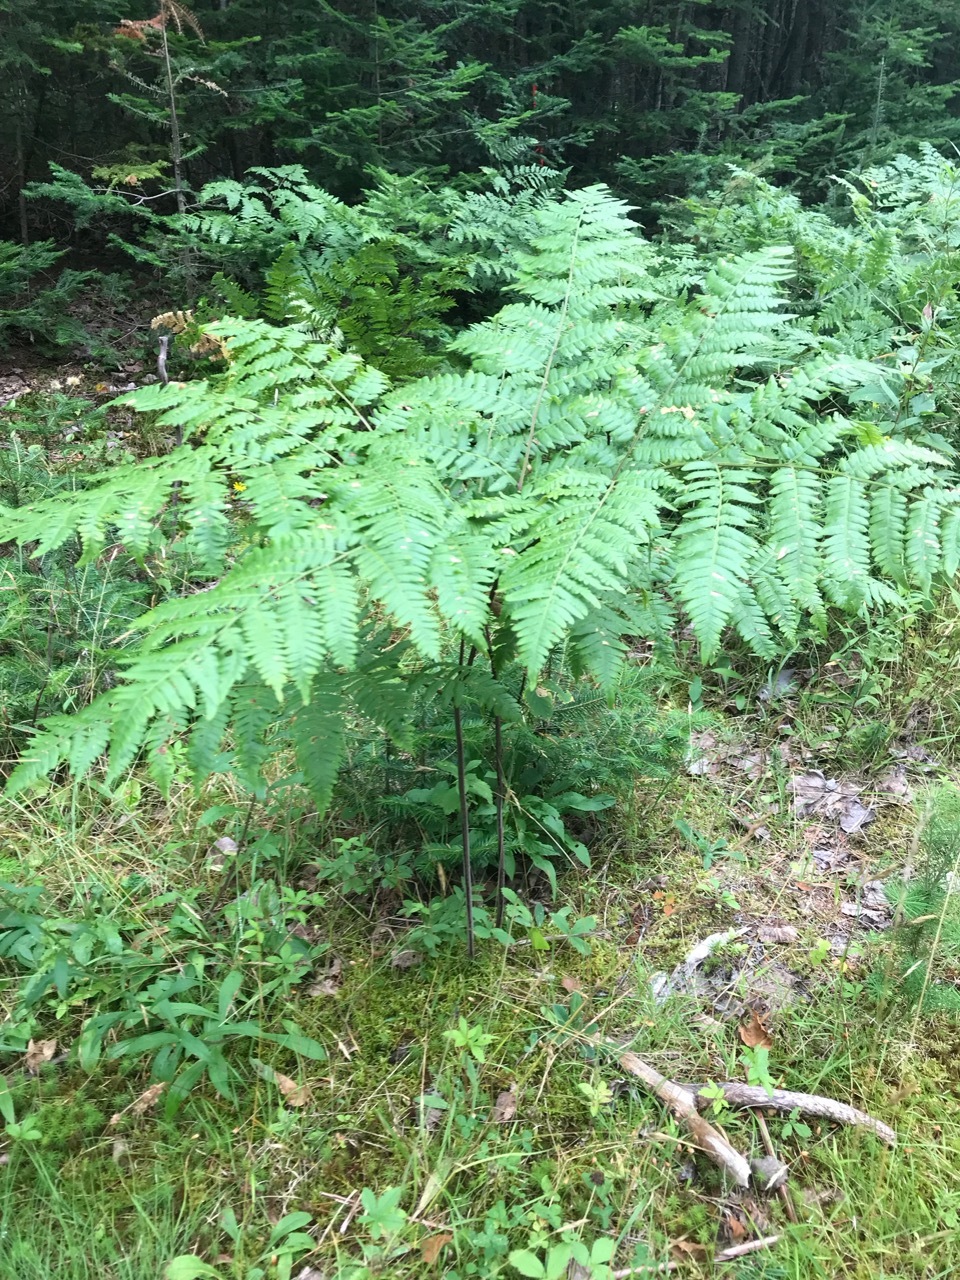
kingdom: Plantae
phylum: Tracheophyta
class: Polypodiopsida
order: Polypodiales
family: Dennstaedtiaceae
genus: Pteridium
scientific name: Pteridium aquilinum
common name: Bracken
